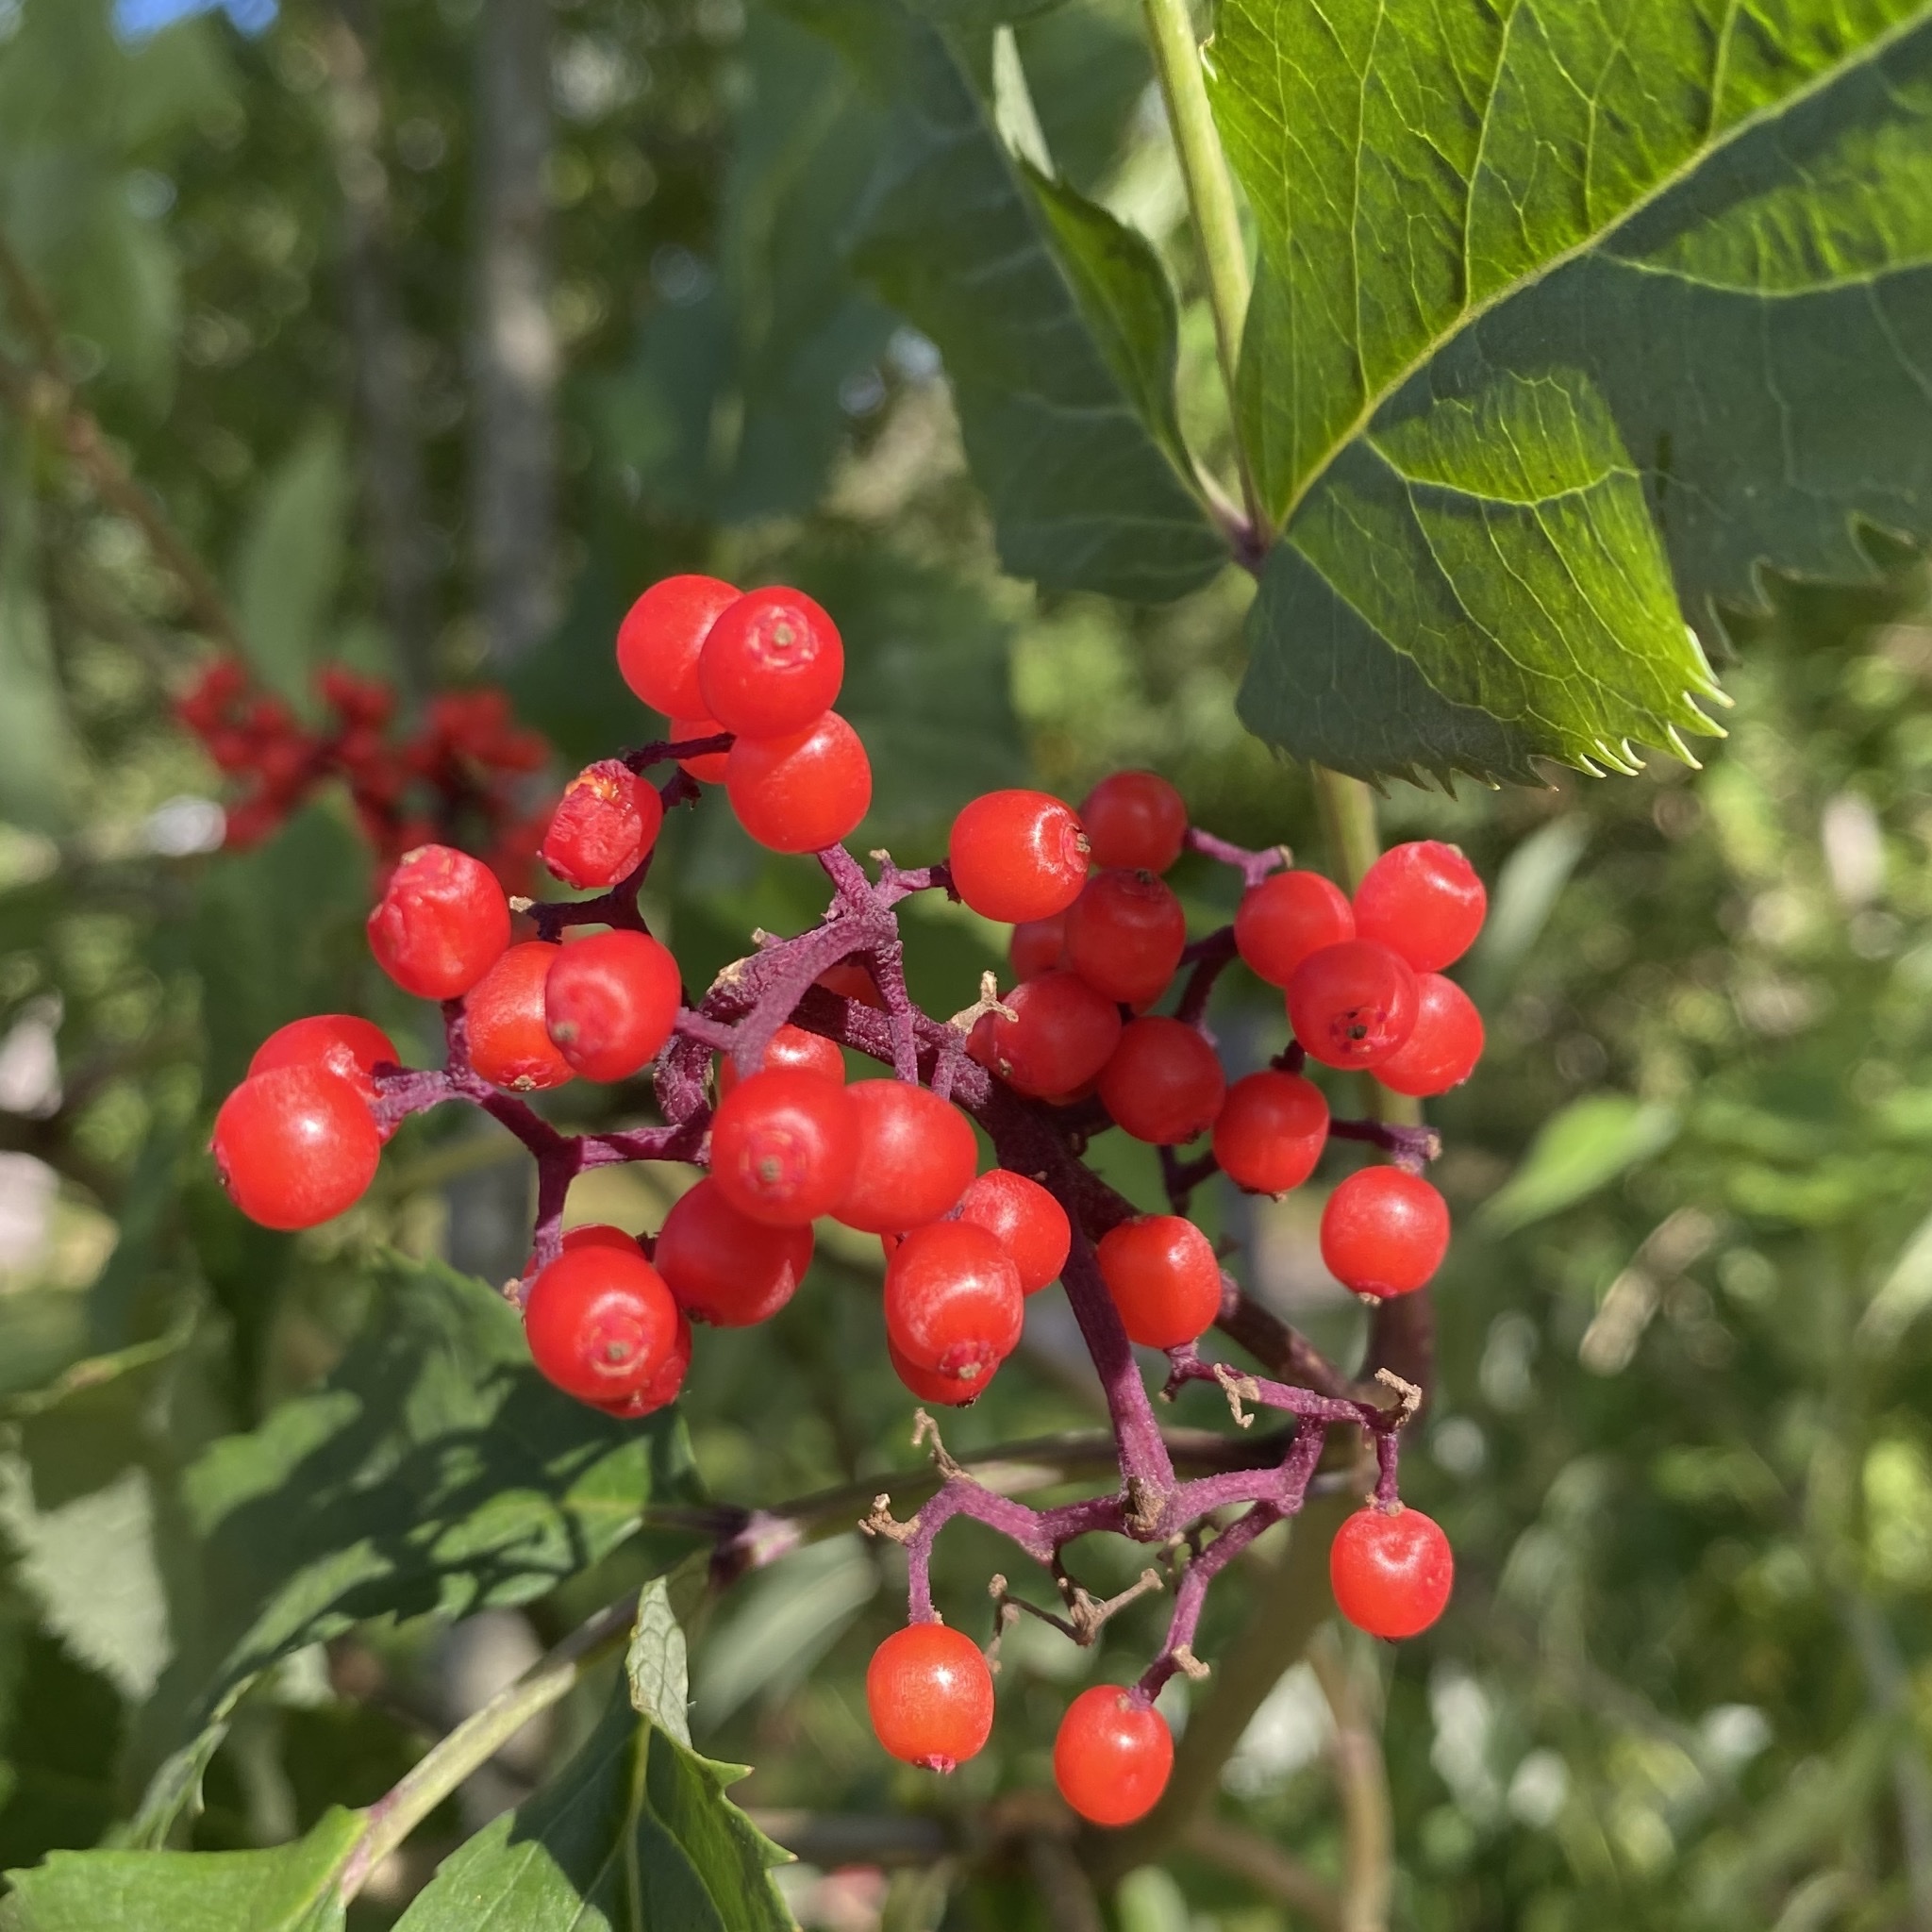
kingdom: Plantae
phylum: Tracheophyta
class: Magnoliopsida
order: Dipsacales
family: Viburnaceae
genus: Sambucus
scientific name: Sambucus racemosa
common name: Red-berried elder
